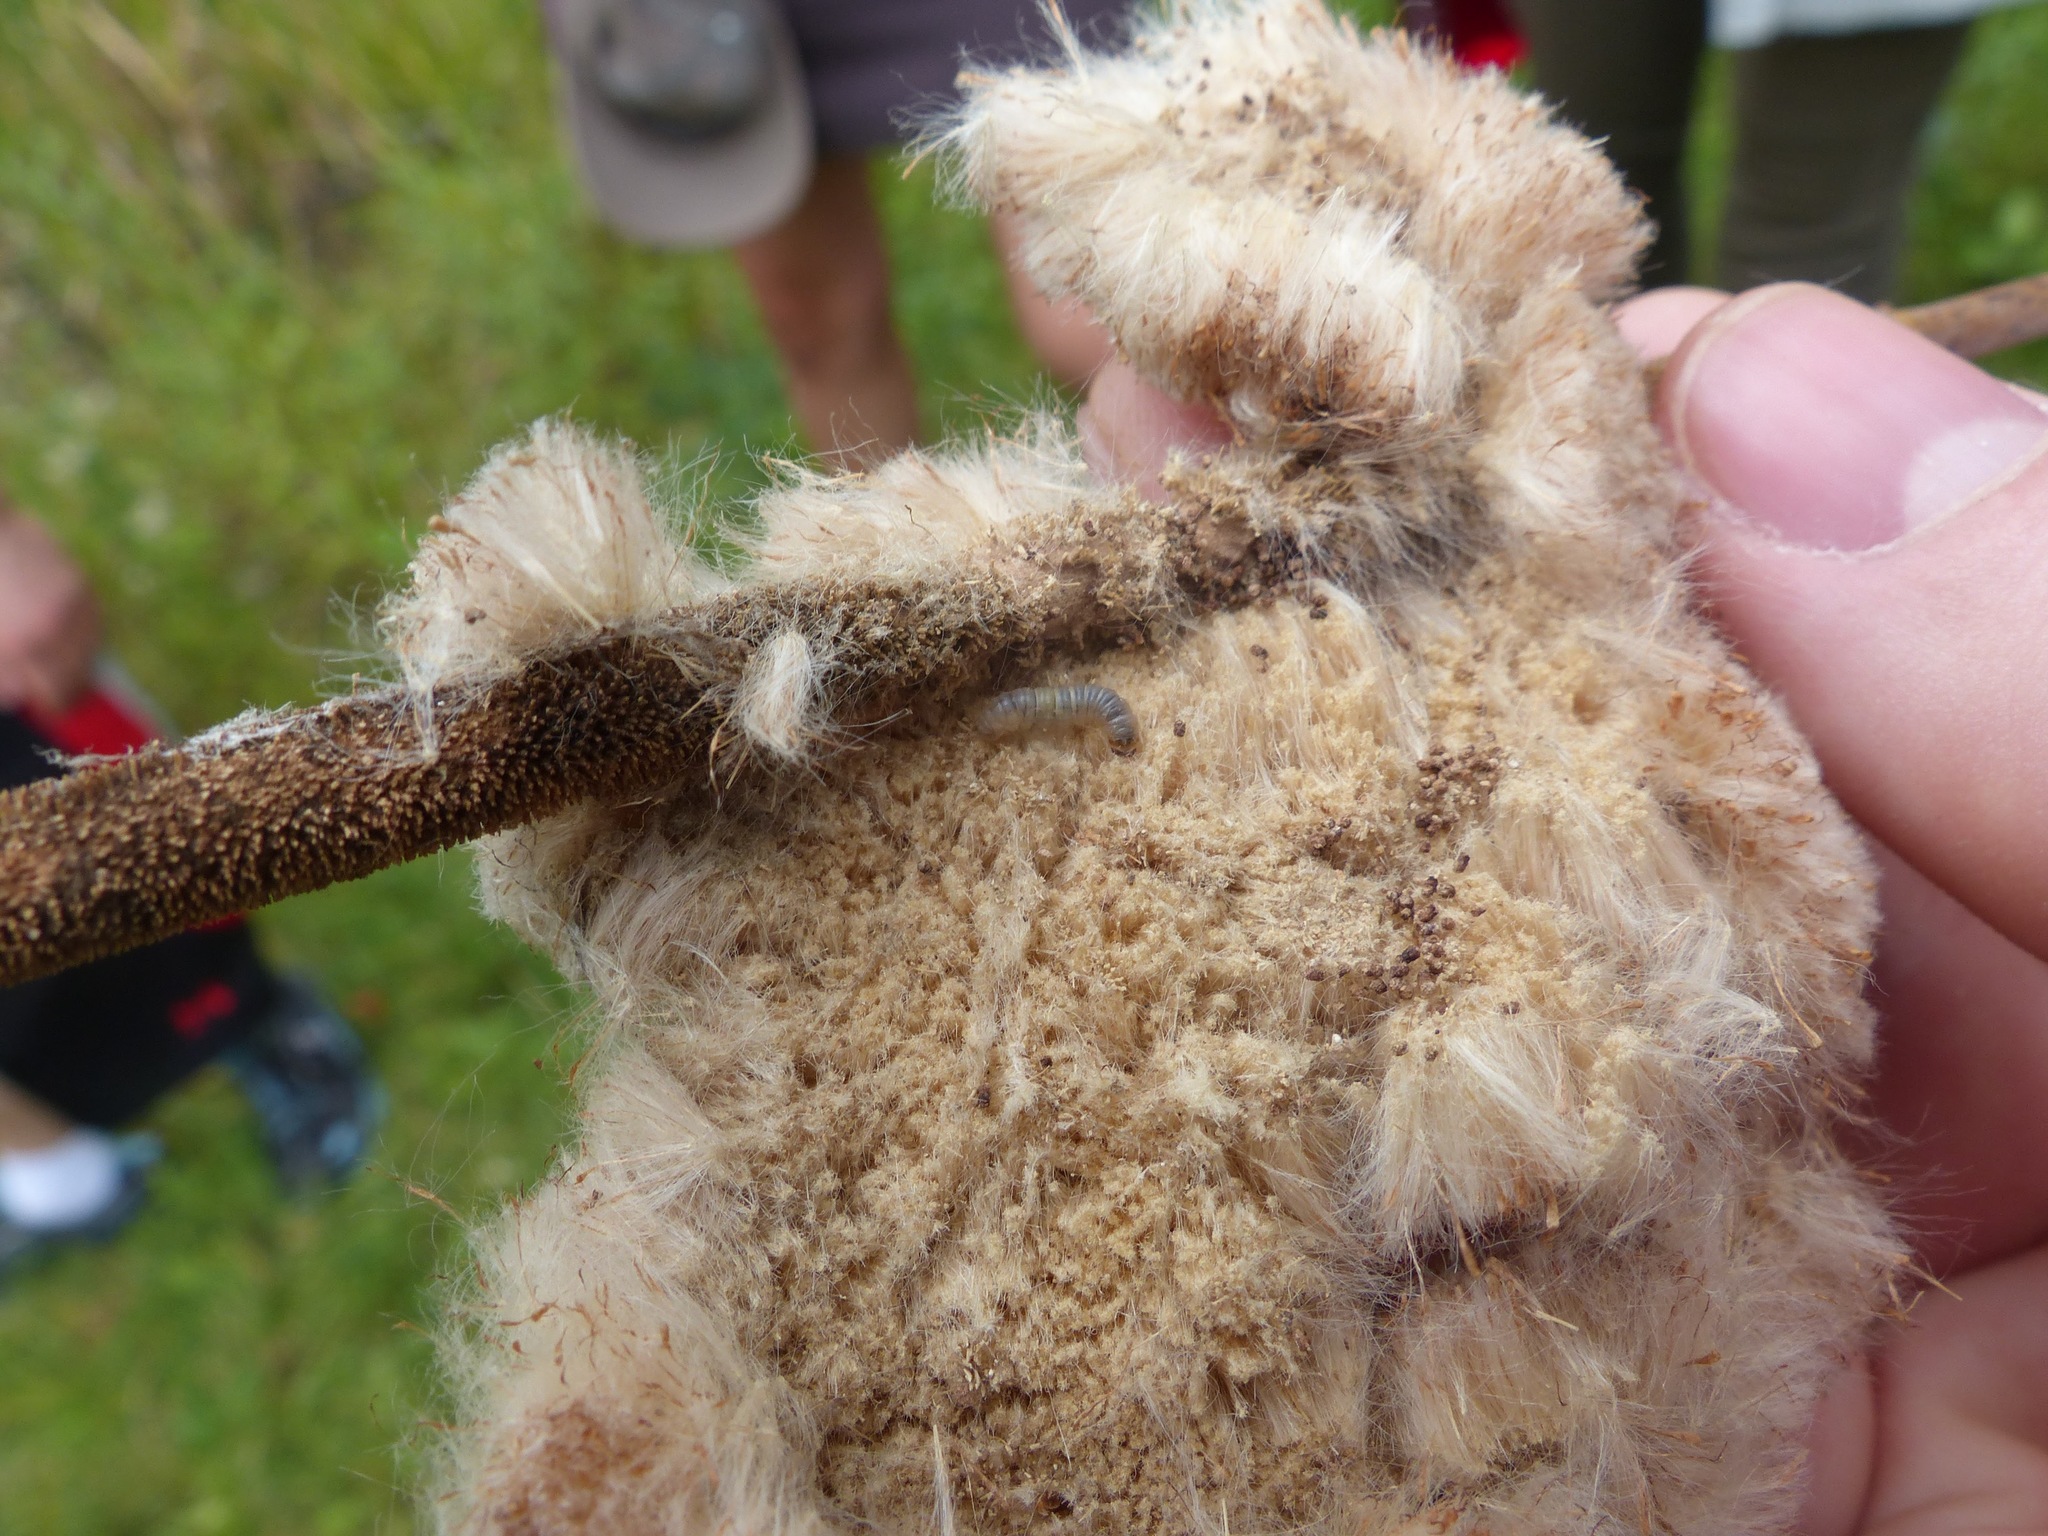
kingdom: Animalia
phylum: Arthropoda
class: Insecta
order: Lepidoptera
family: Crambidae
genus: Dicymolomia
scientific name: Dicymolomia julianalis
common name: Julia's dicymolomia moth
